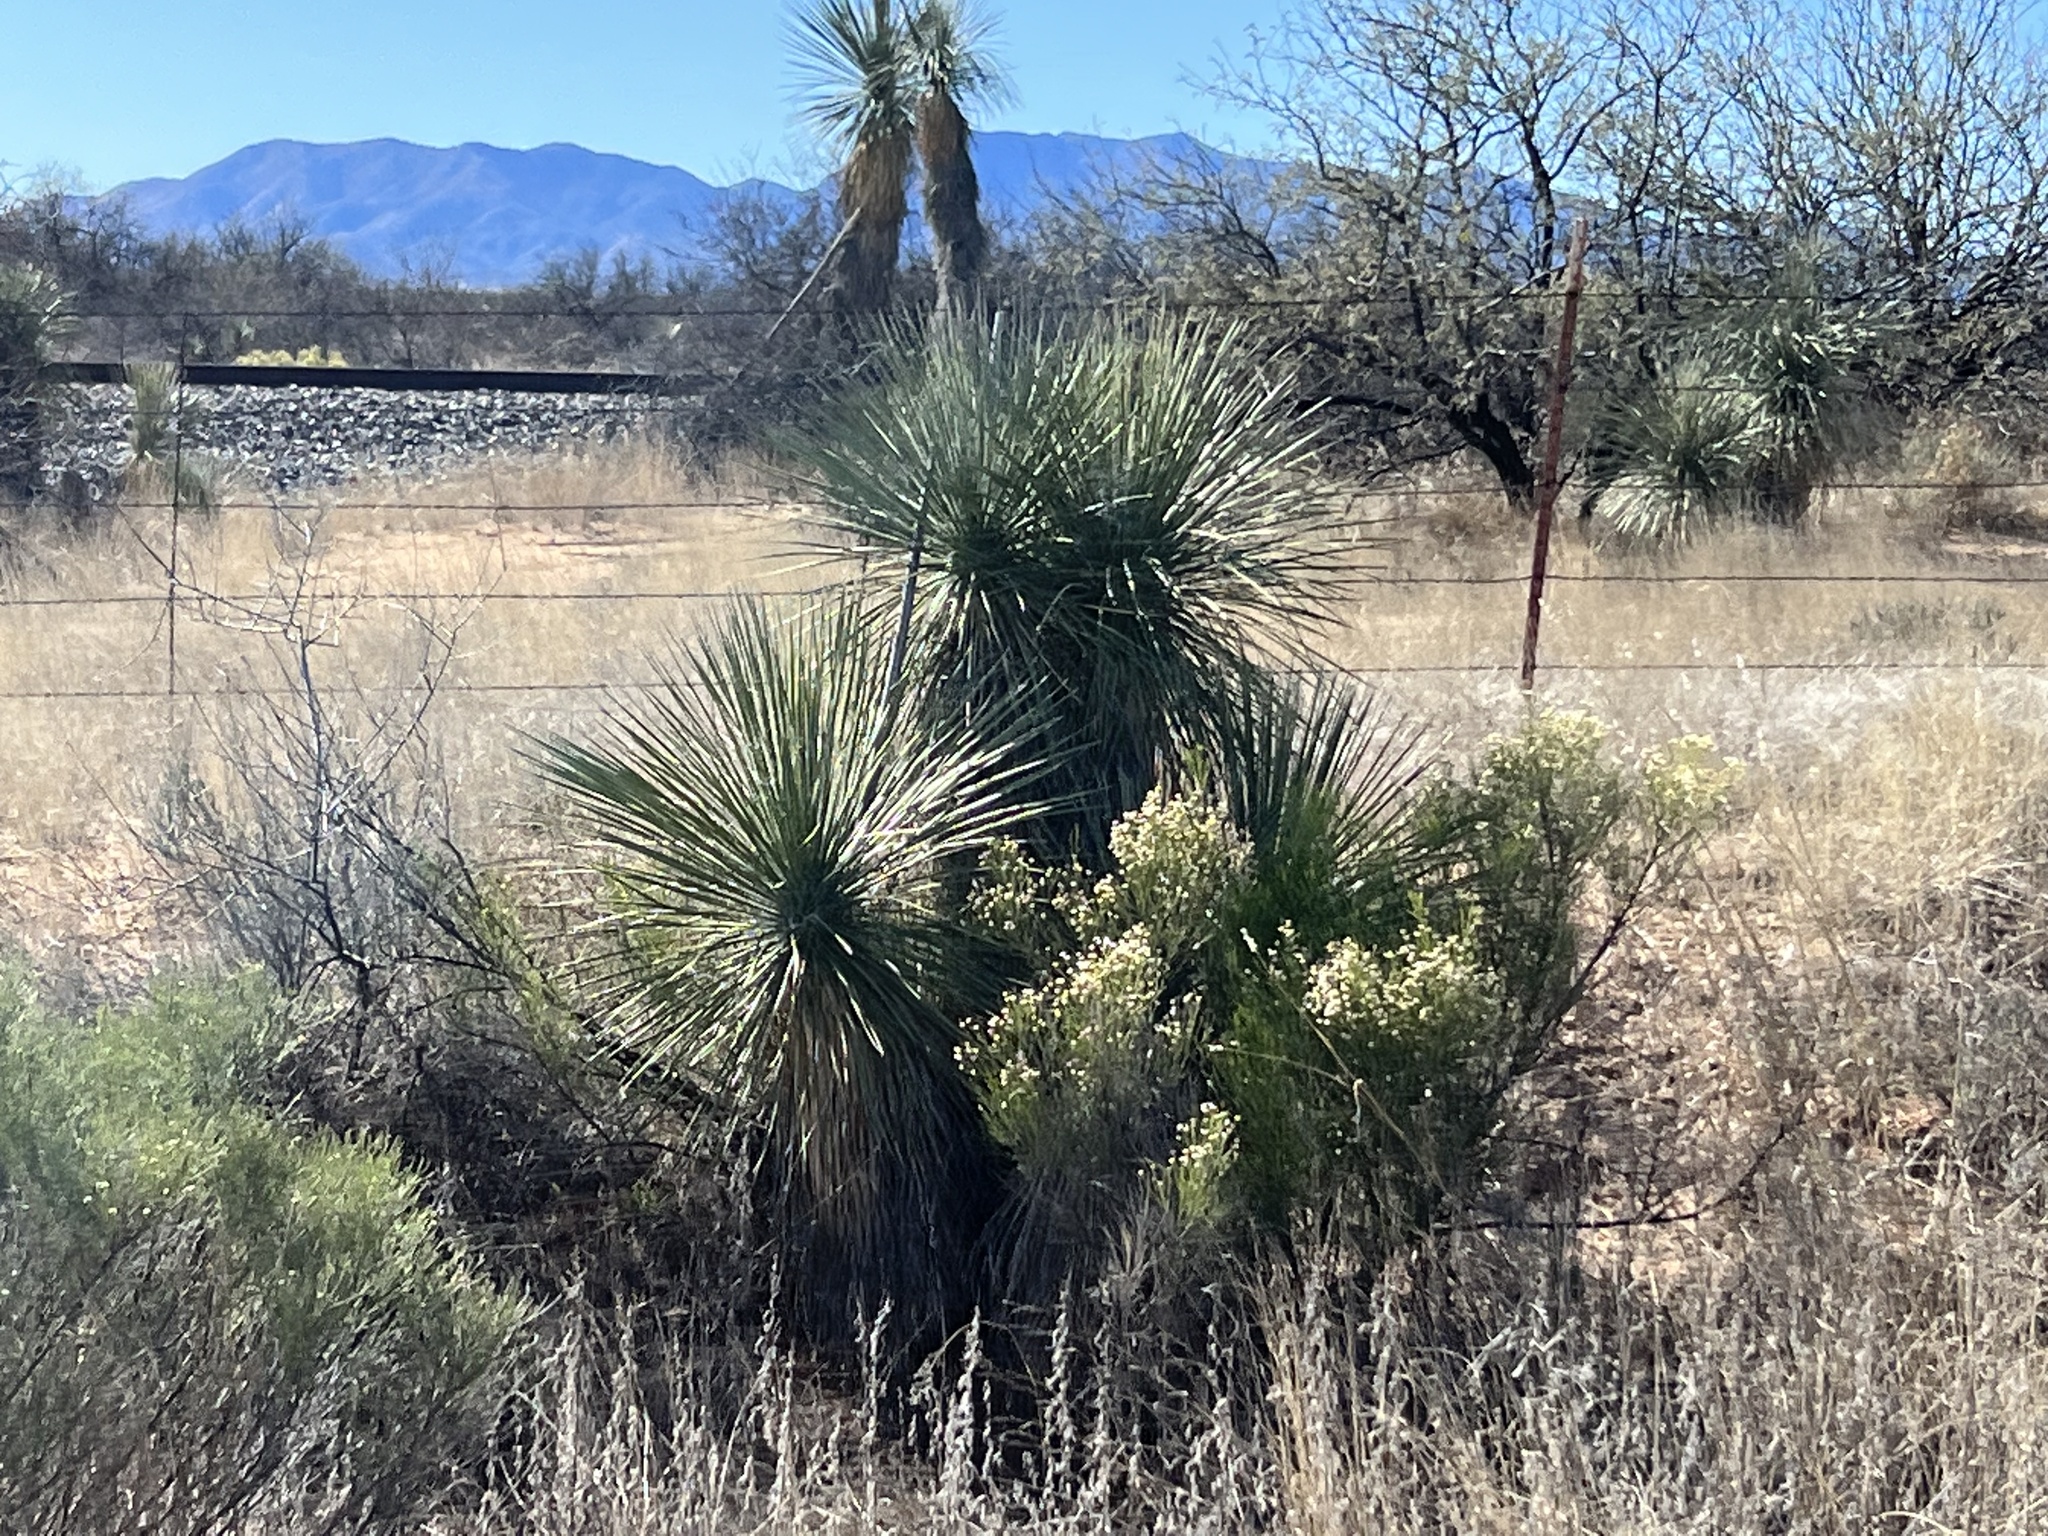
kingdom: Plantae
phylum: Tracheophyta
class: Liliopsida
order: Asparagales
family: Asparagaceae
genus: Yucca
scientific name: Yucca elata
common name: Palmella
